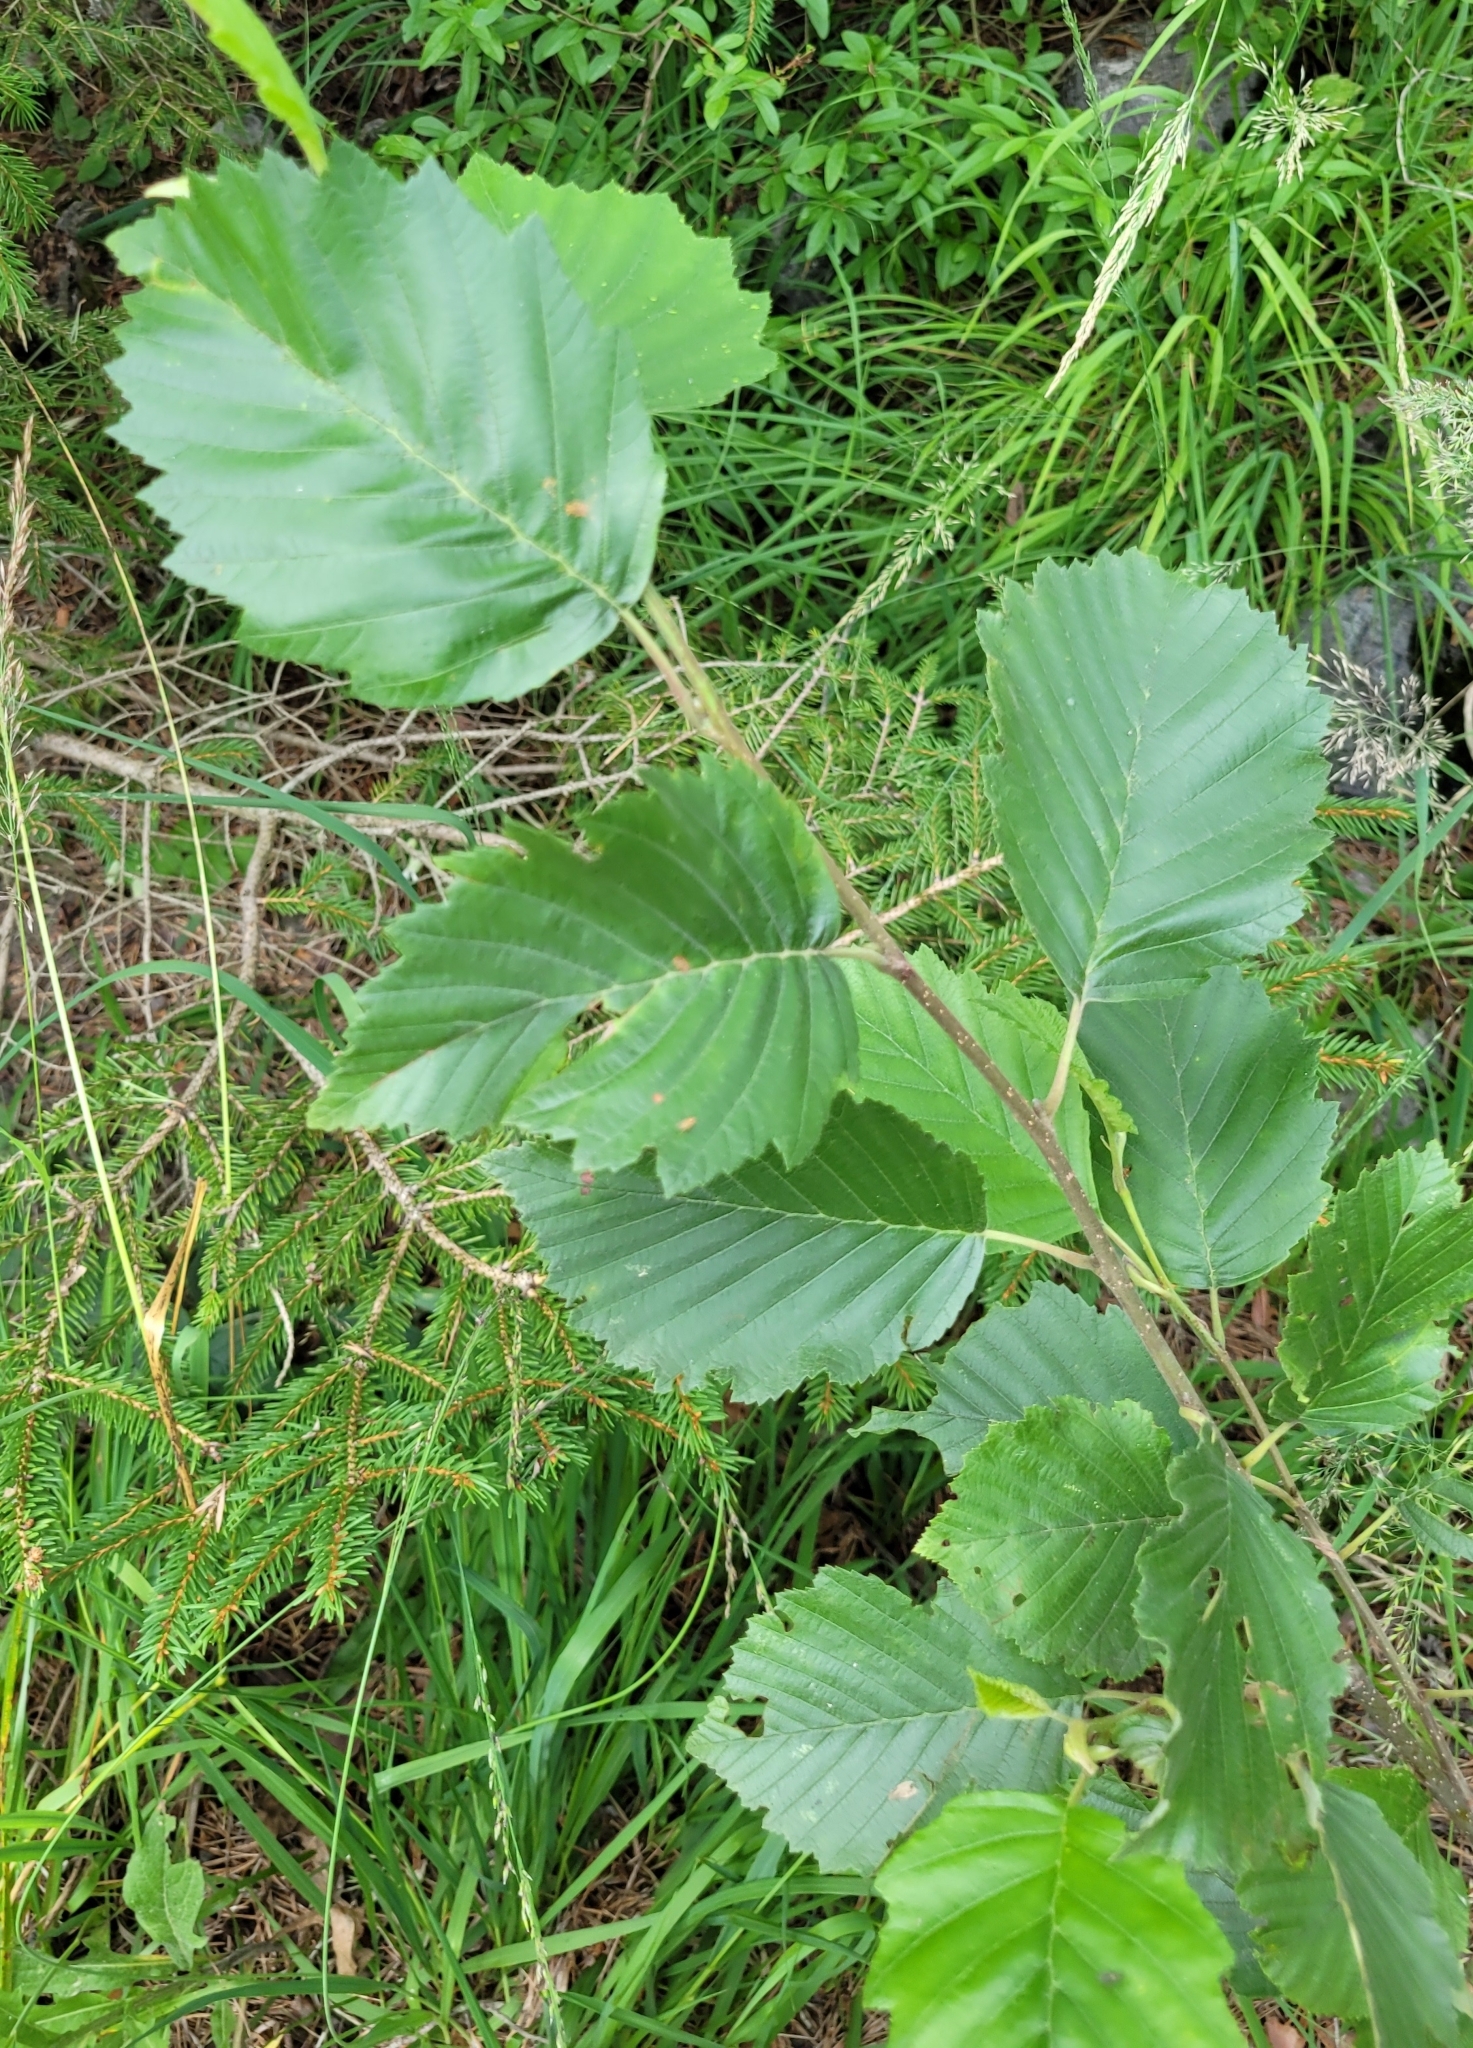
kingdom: Plantae
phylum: Tracheophyta
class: Magnoliopsida
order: Fagales
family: Betulaceae
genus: Alnus
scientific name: Alnus incana
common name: Grey alder
